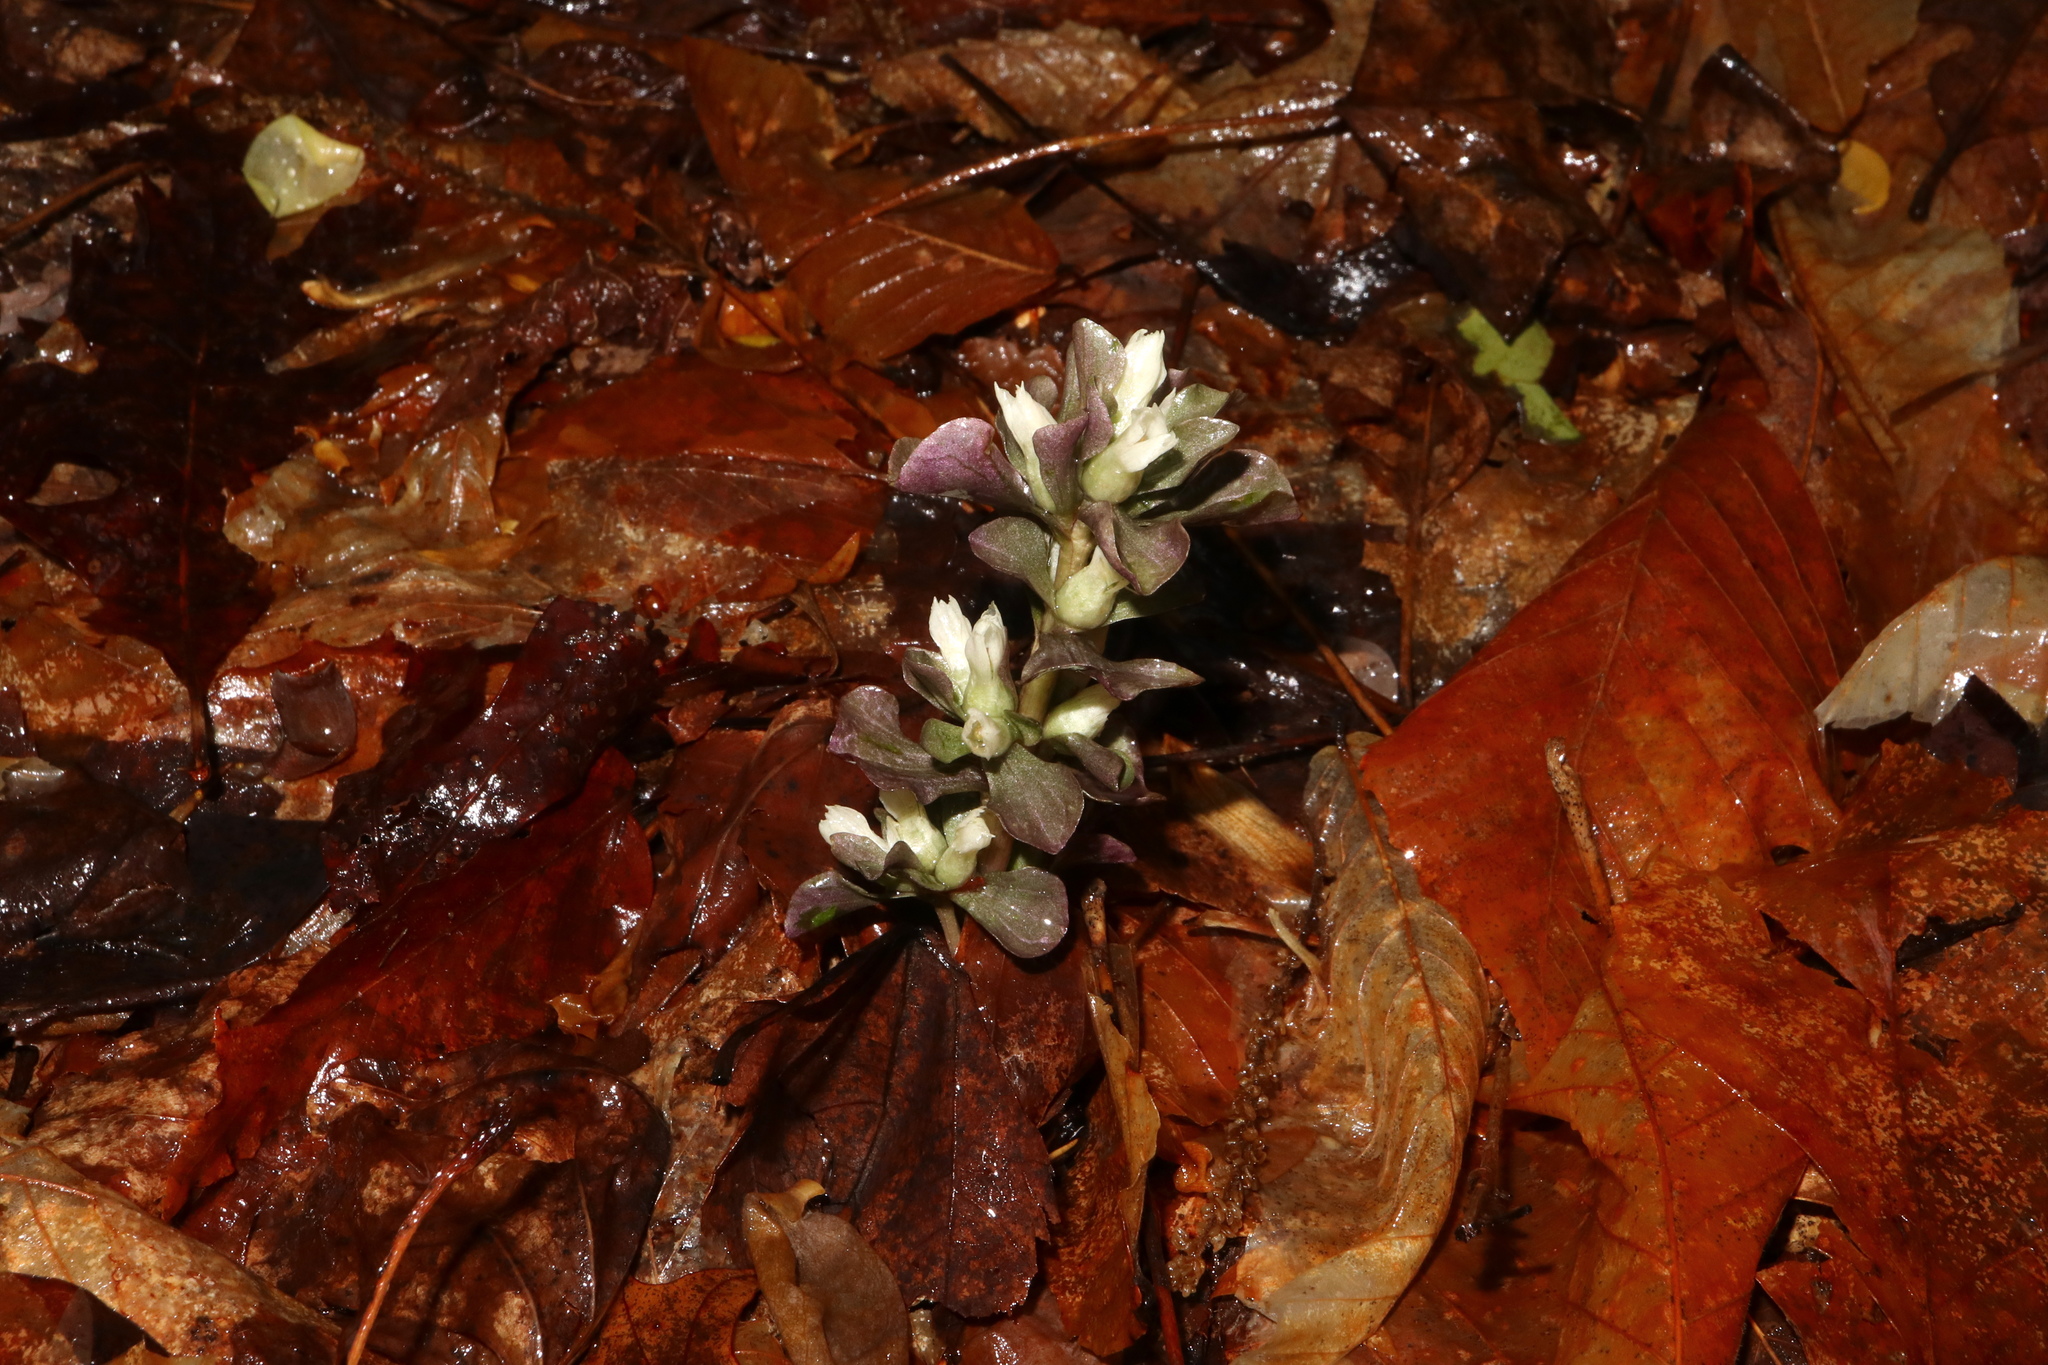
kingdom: Plantae
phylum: Tracheophyta
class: Magnoliopsida
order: Gentianales
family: Gentianaceae
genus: Obolaria
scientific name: Obolaria virginica
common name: Pennywort
